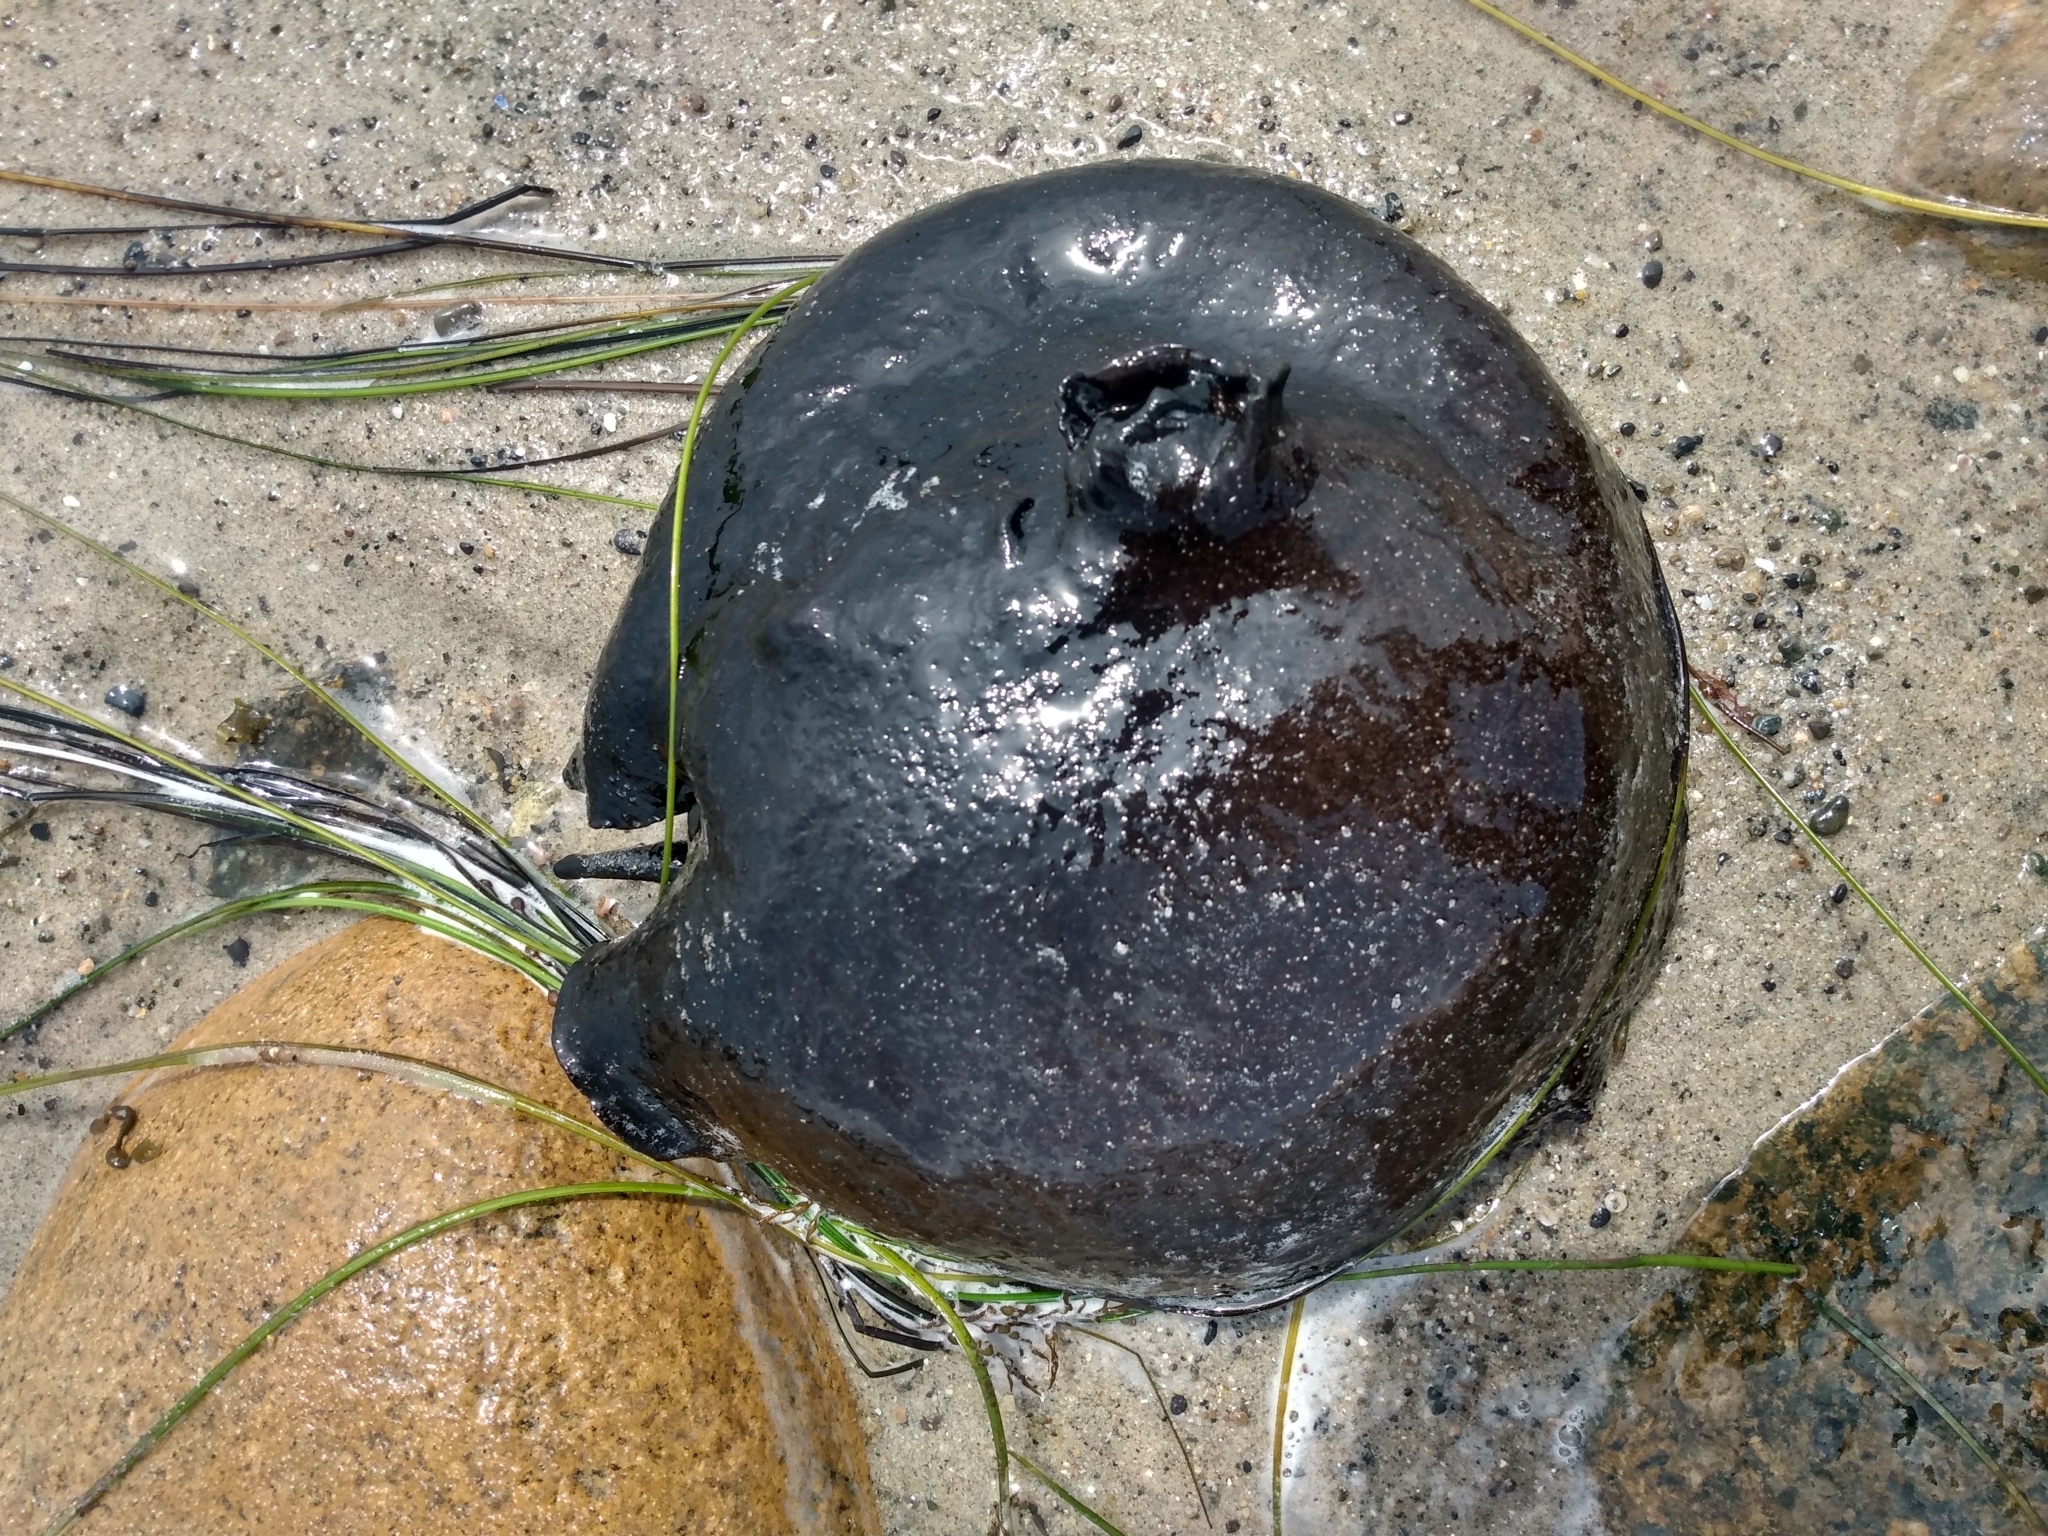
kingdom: Animalia
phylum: Mollusca
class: Gastropoda
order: Aplysiida
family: Aplysiidae
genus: Aplysia
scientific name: Aplysia vaccaria
